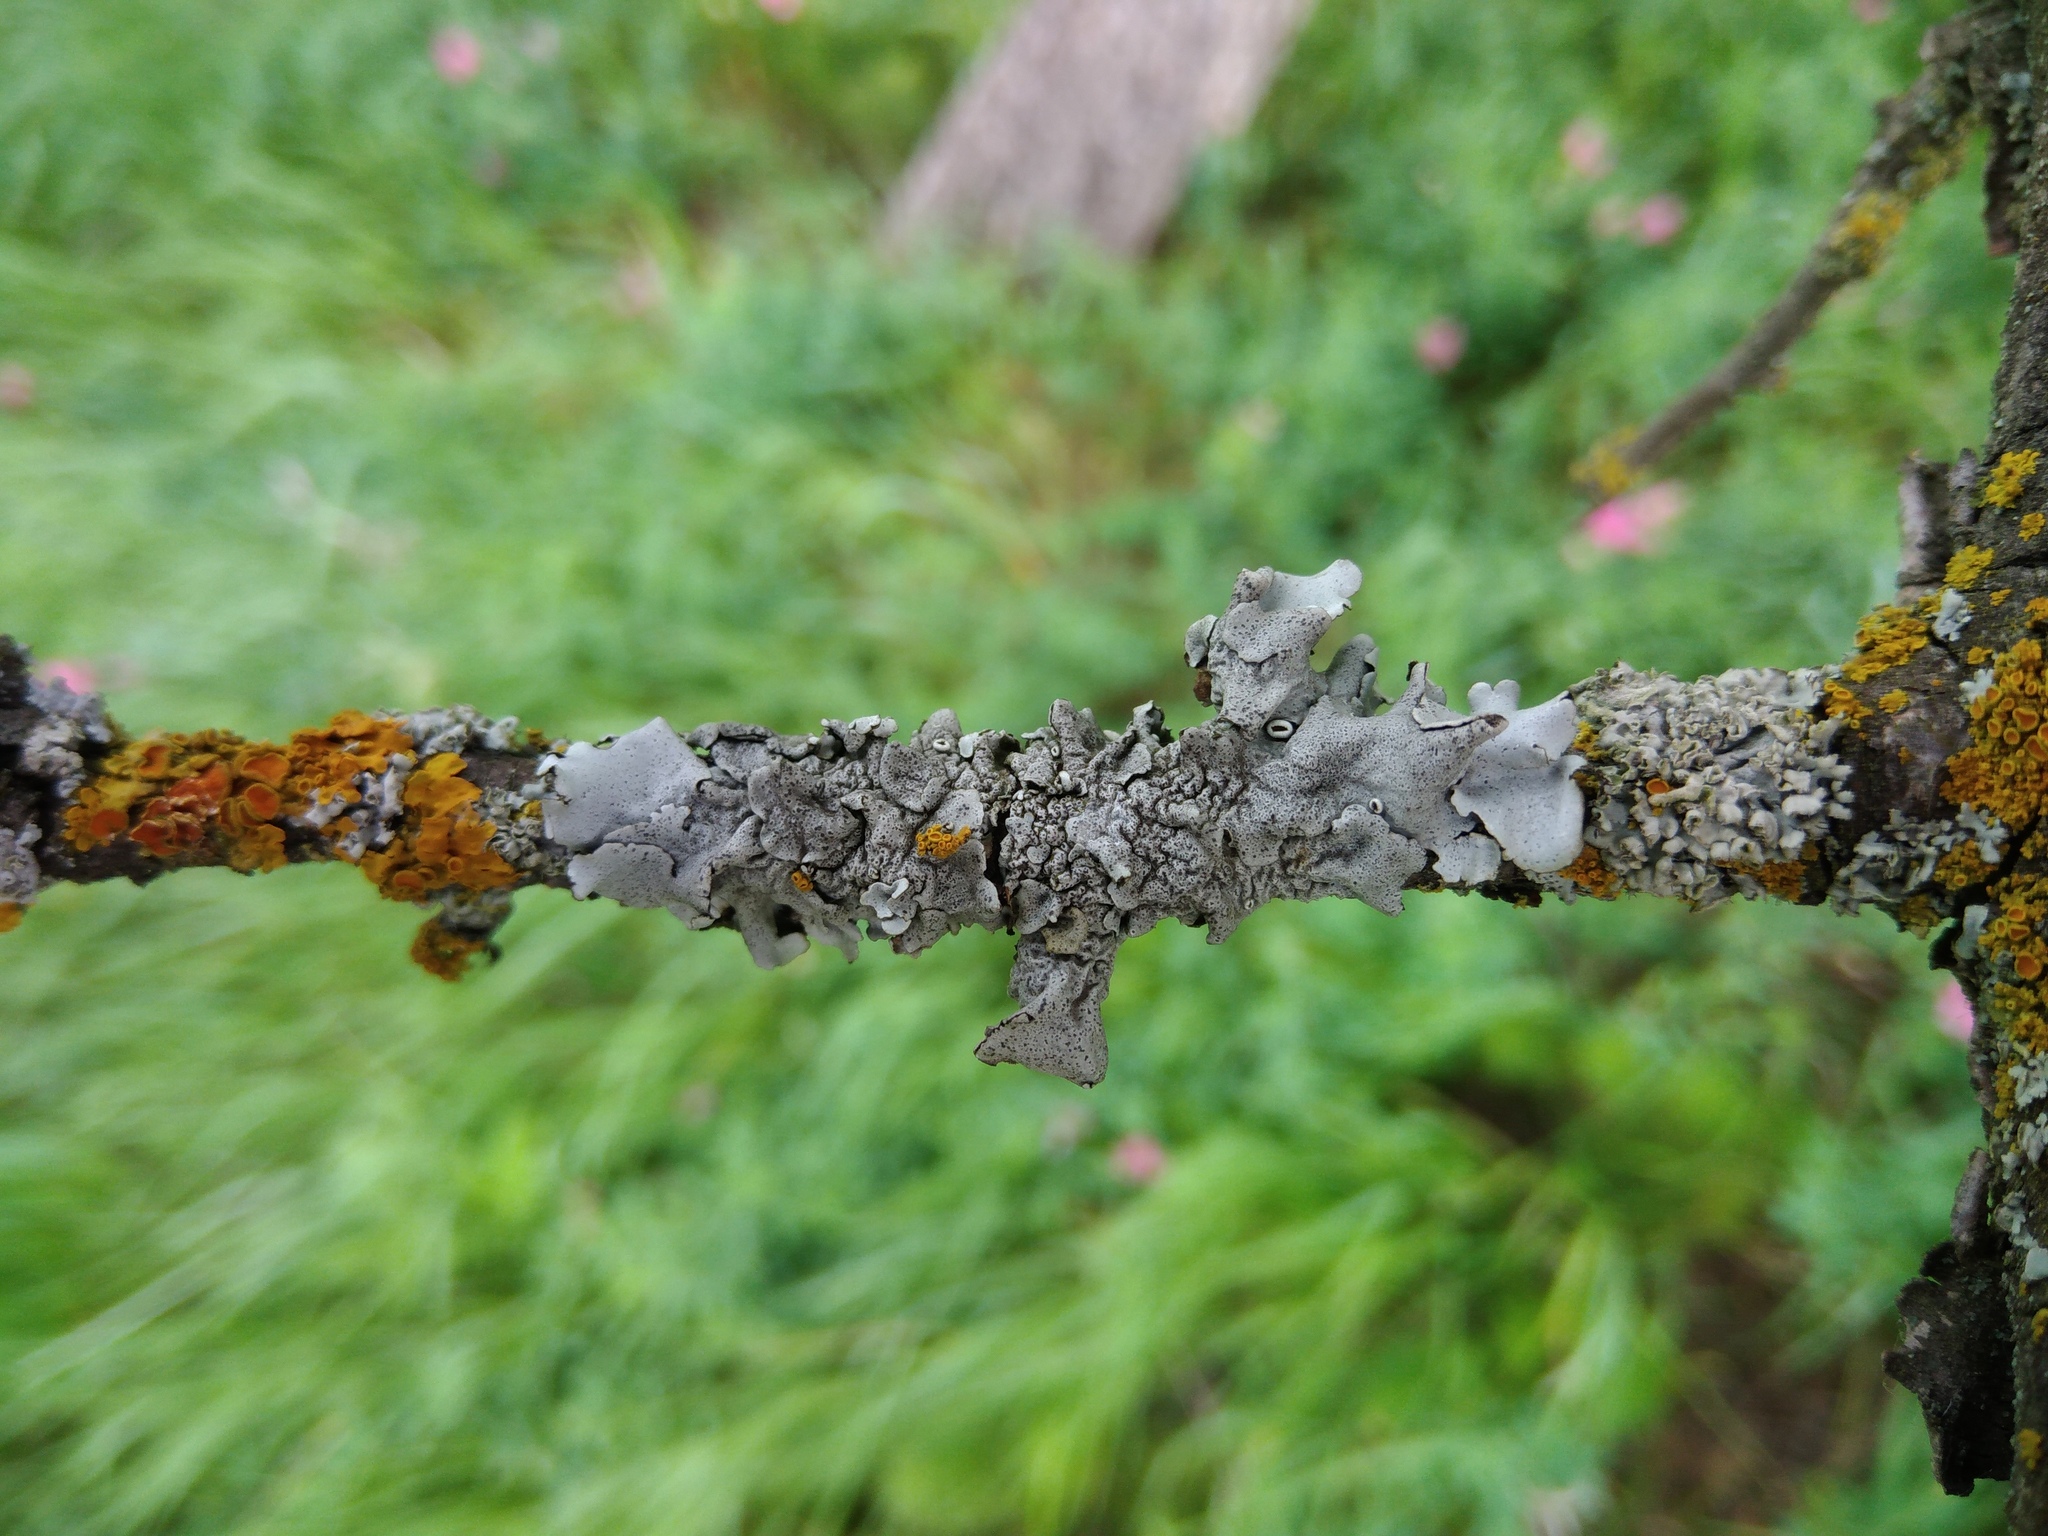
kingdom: Fungi
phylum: Ascomycota
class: Lecanoromycetes
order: Lecanorales
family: Parmeliaceae
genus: Parmelina
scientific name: Parmelina quercina
